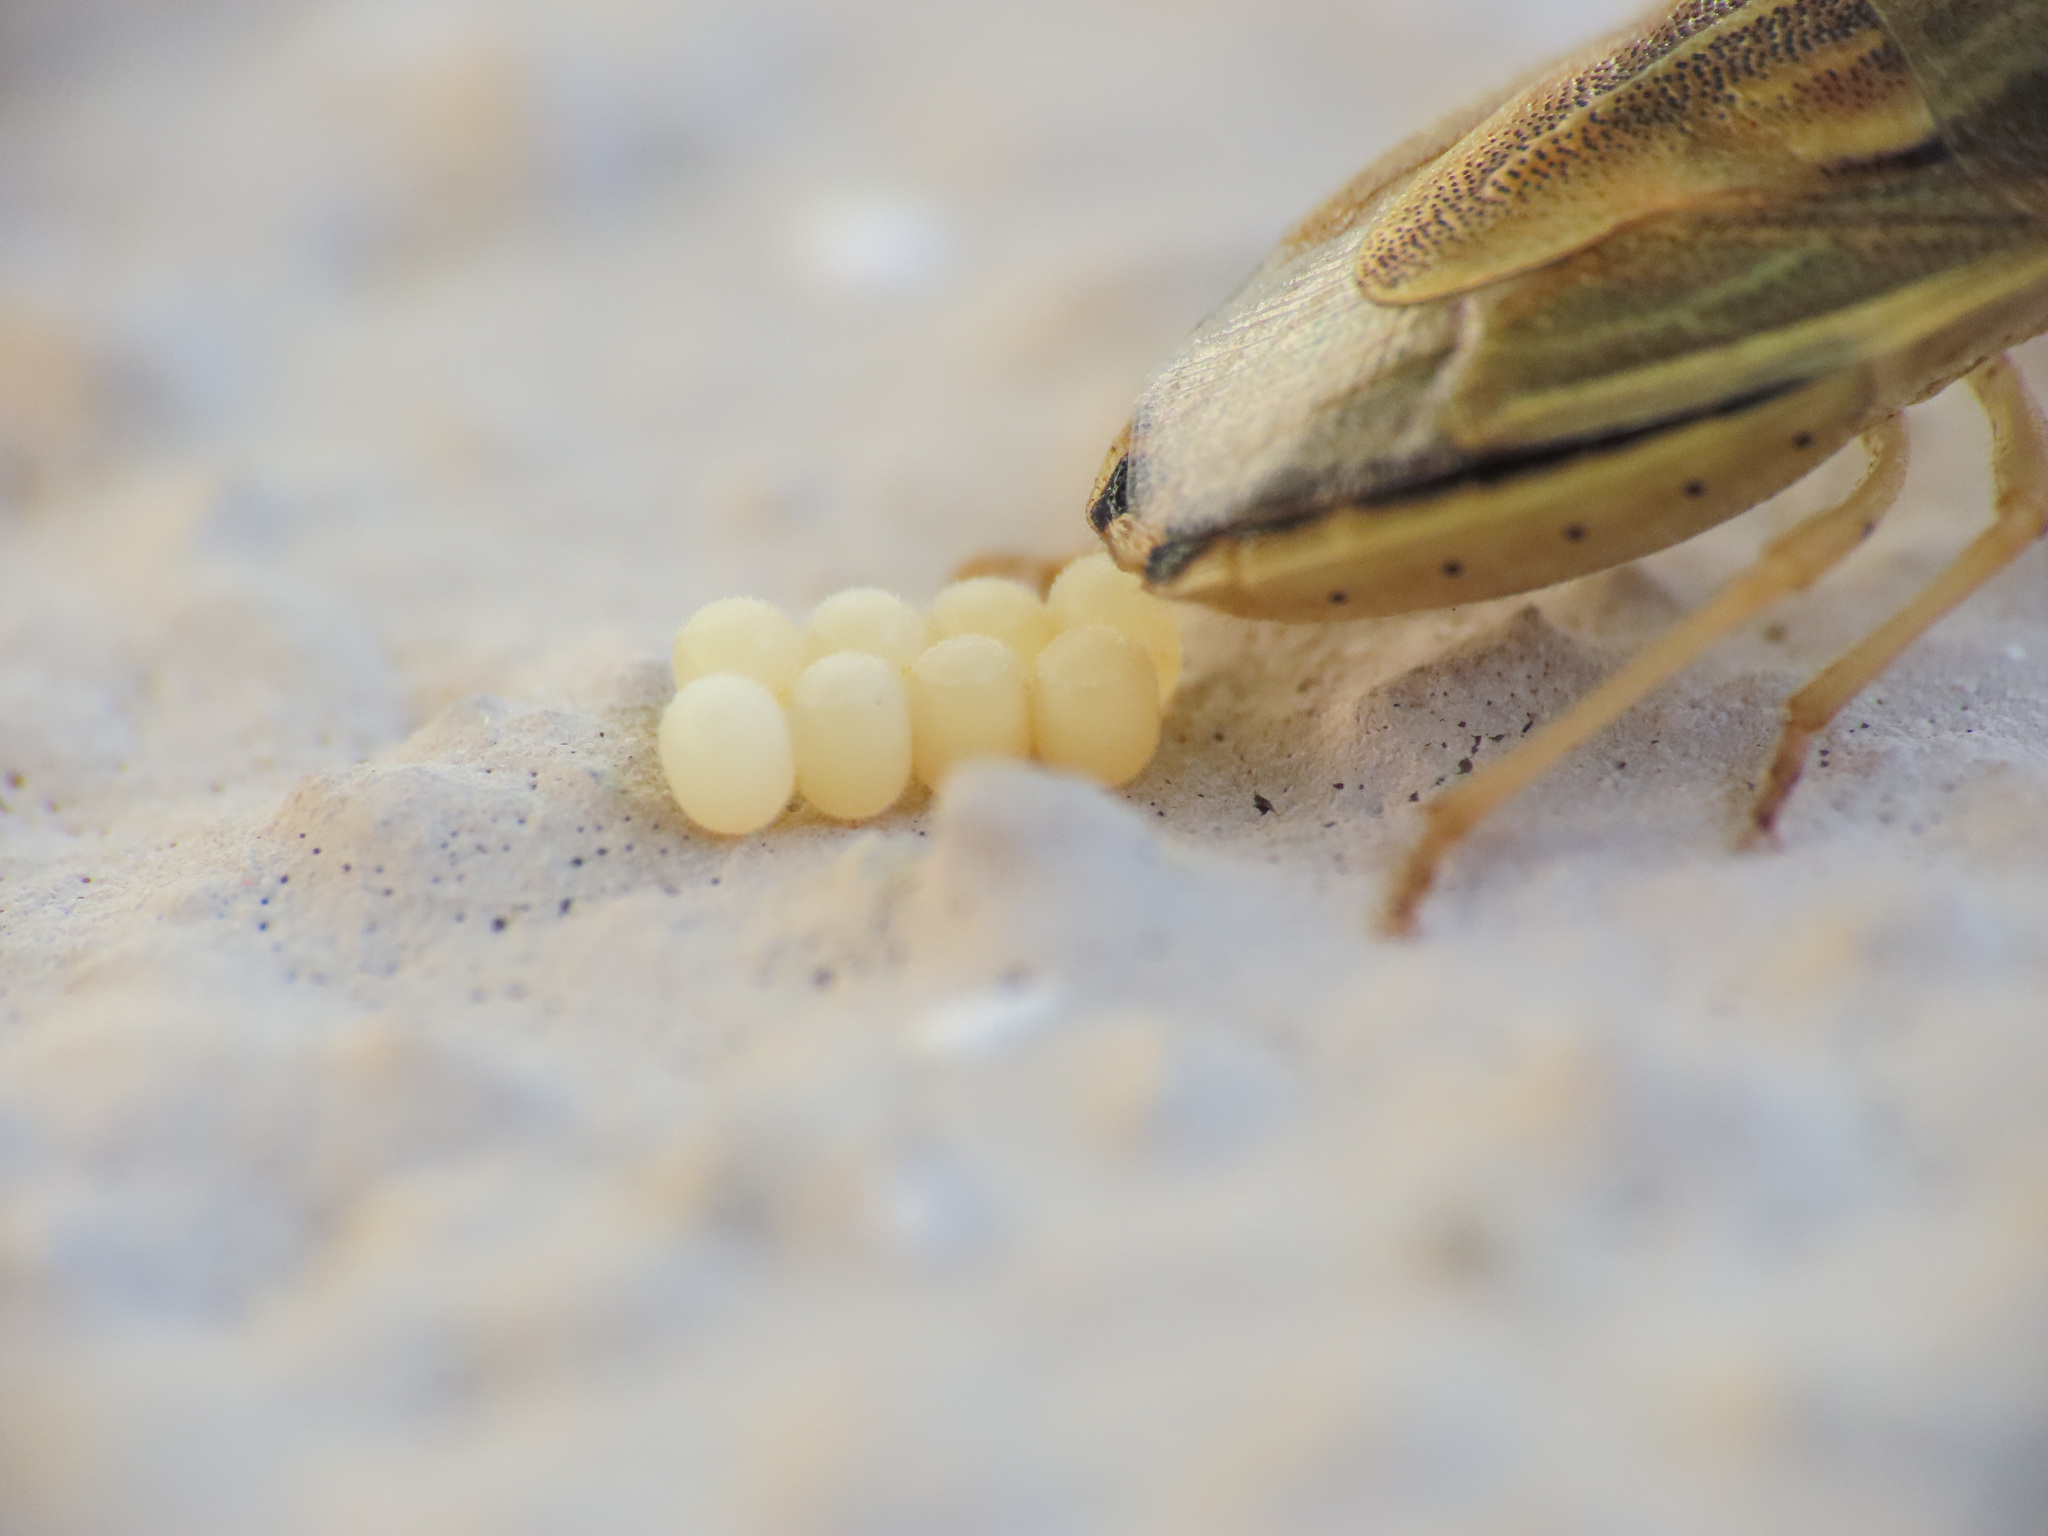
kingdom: Animalia
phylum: Arthropoda
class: Insecta
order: Hemiptera
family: Pentatomidae
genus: Aelia
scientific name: Aelia acuminata
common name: Bishop's mitre
